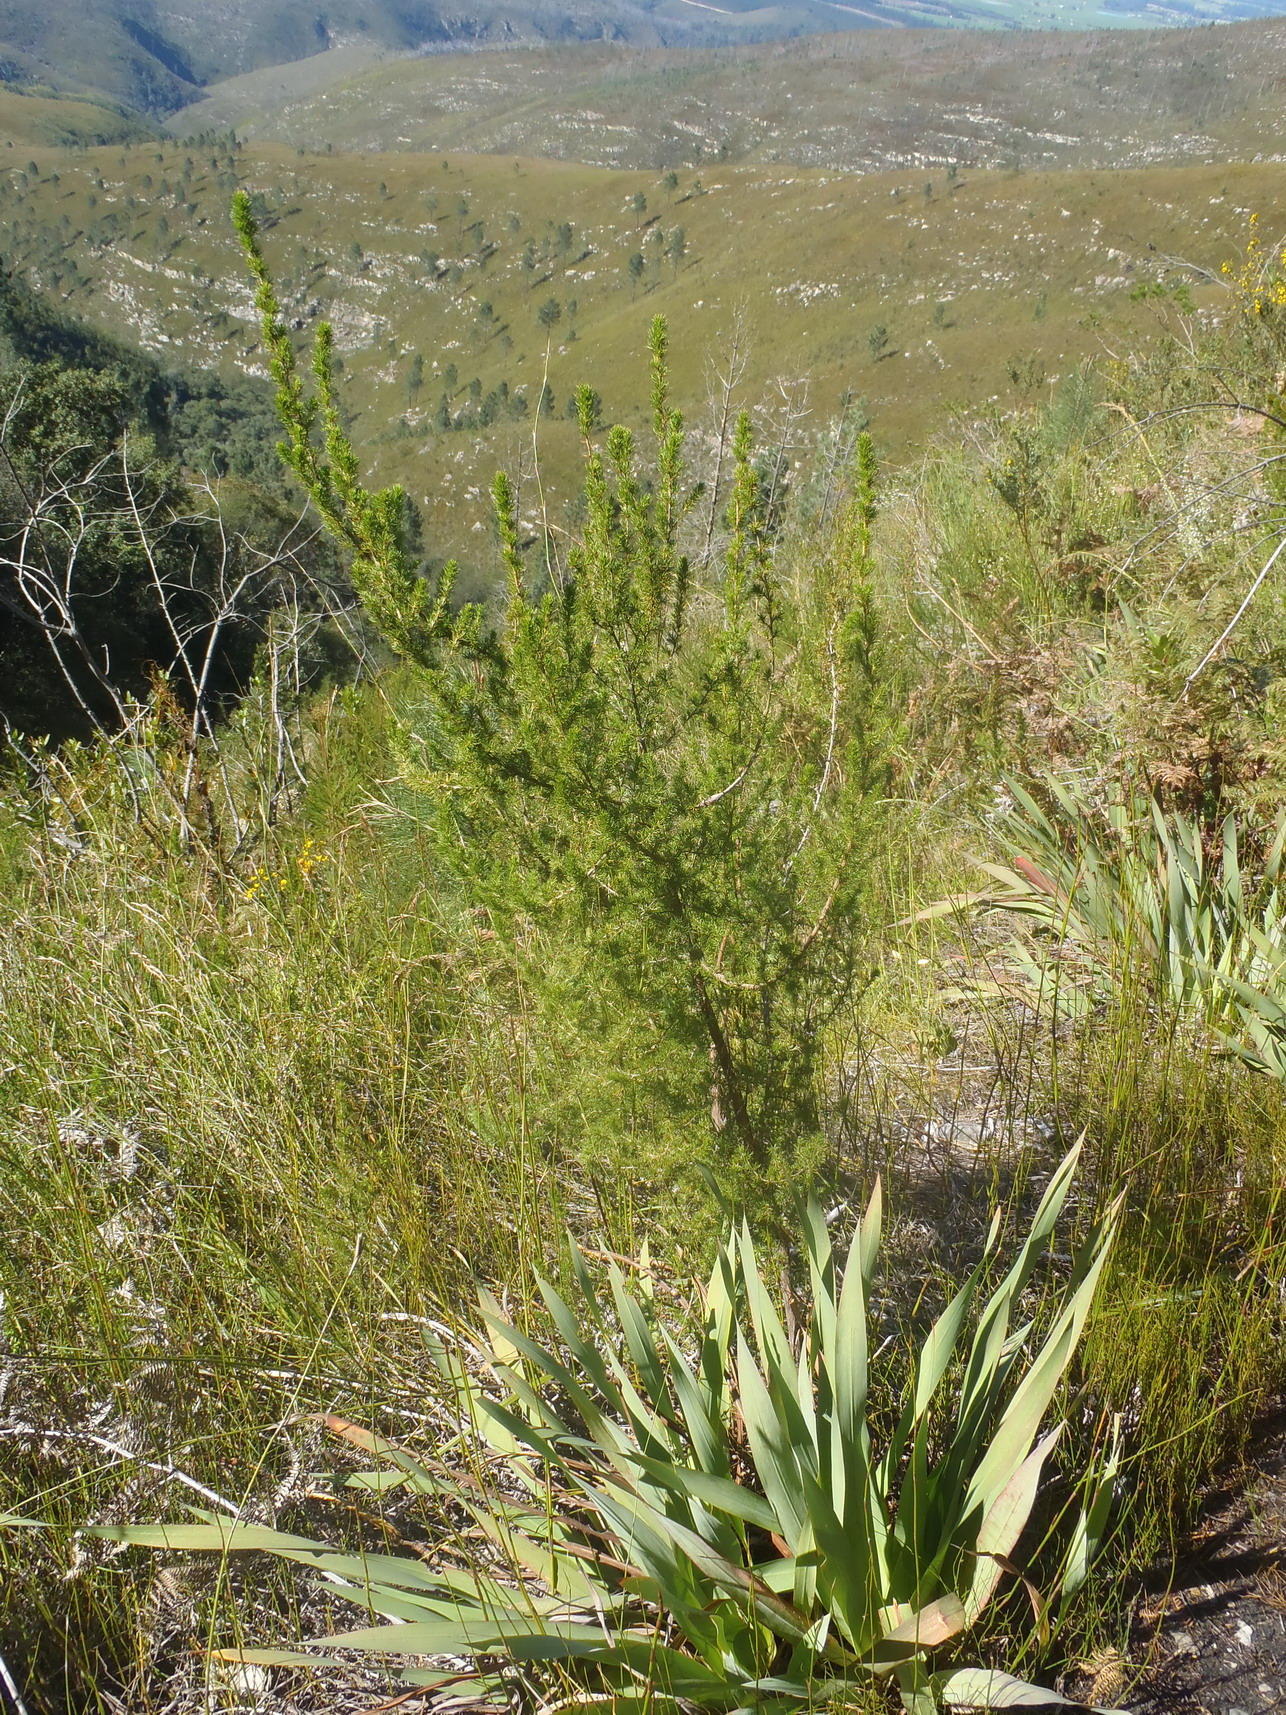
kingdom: Plantae
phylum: Tracheophyta
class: Magnoliopsida
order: Rosales
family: Rosaceae
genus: Cliffortia
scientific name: Cliffortia paucistaminea
